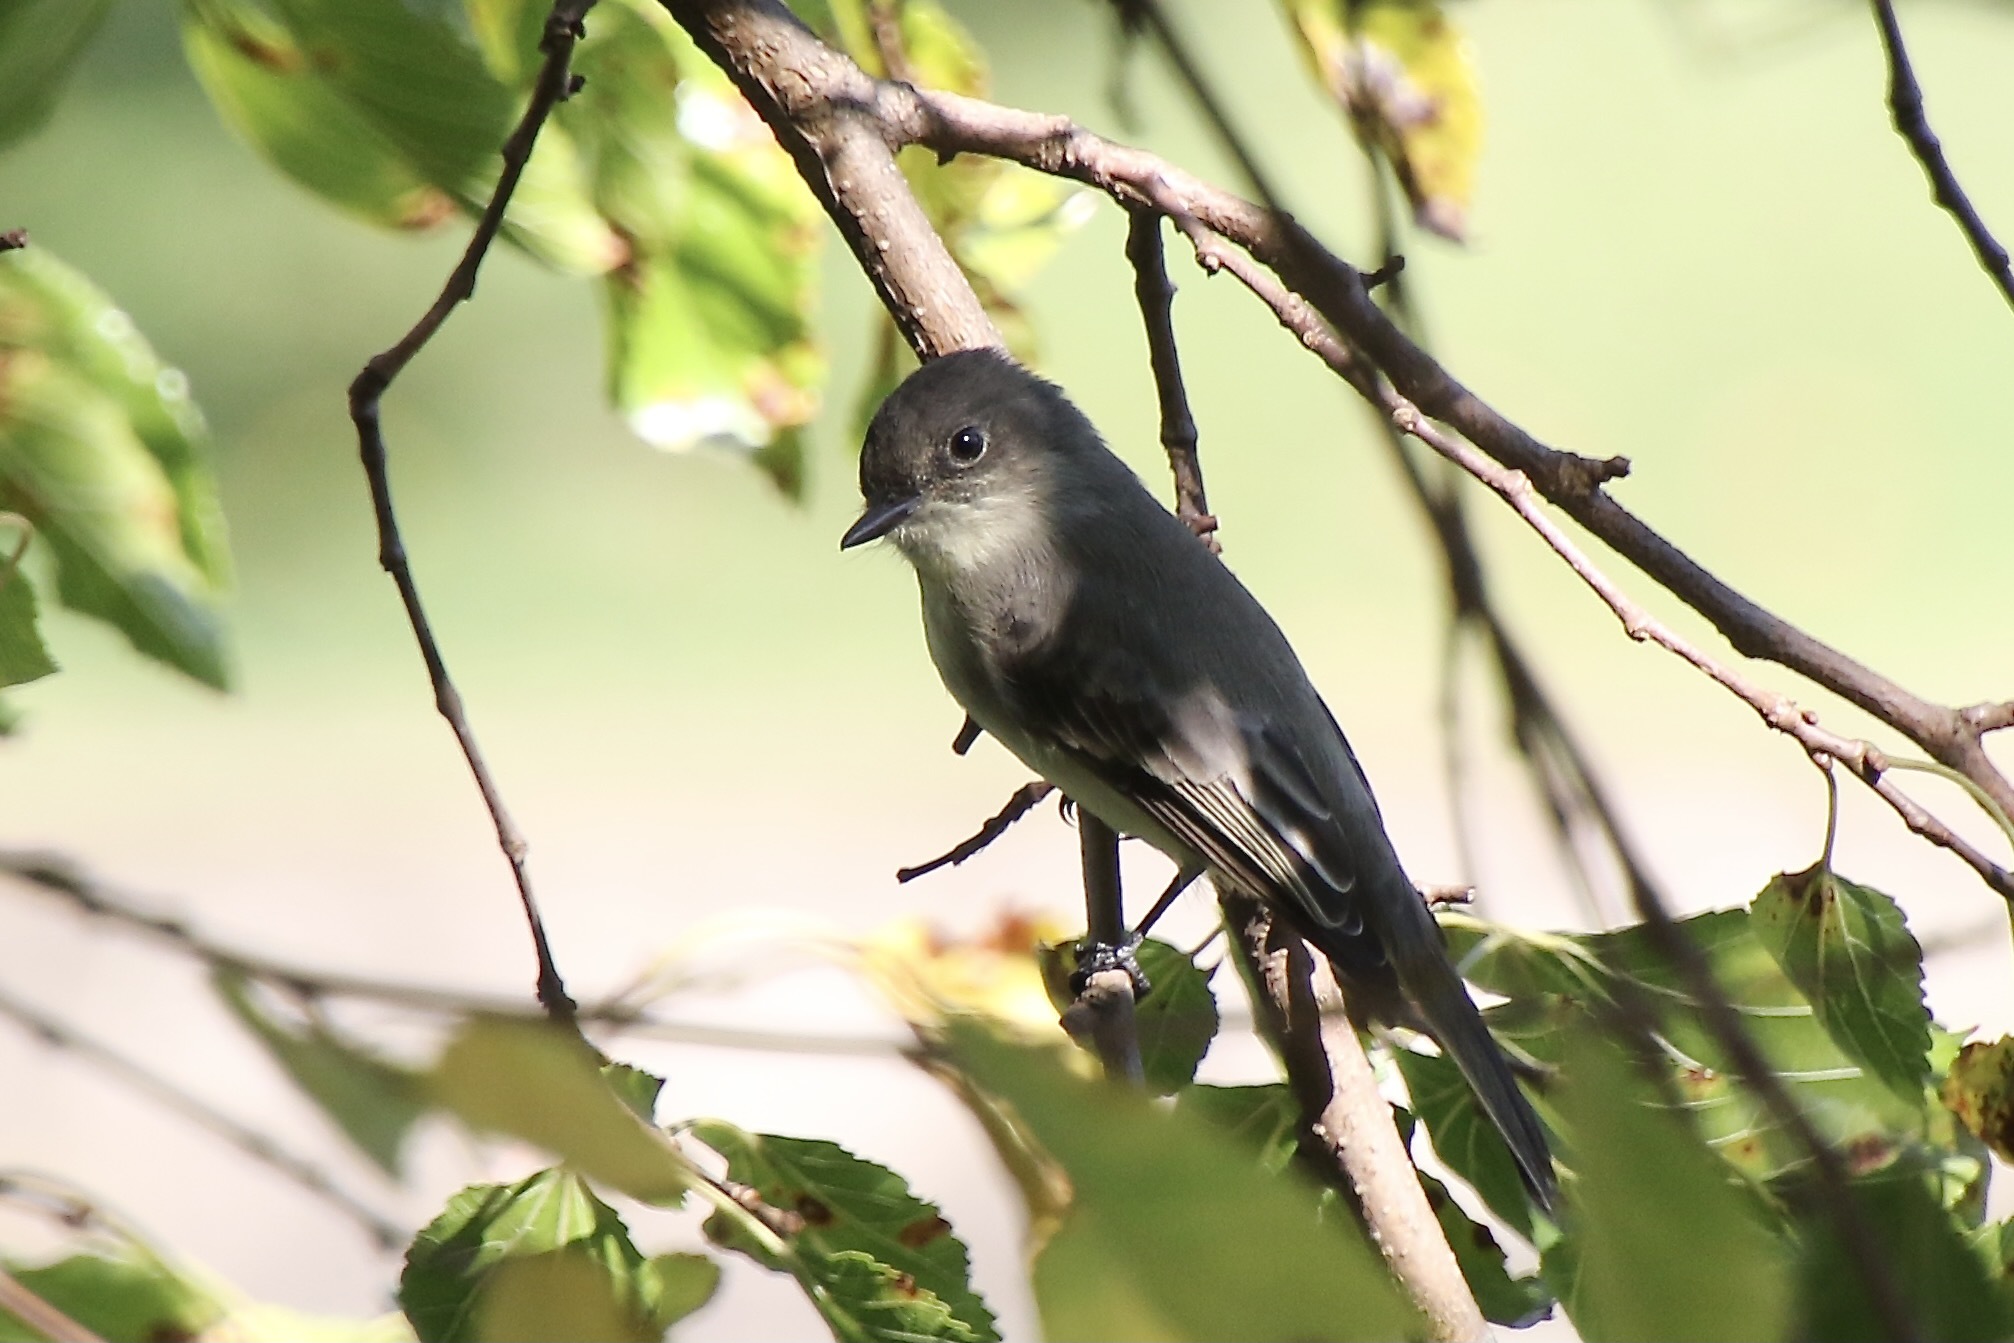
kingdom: Animalia
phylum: Chordata
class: Aves
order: Passeriformes
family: Tyrannidae
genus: Sayornis
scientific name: Sayornis phoebe
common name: Eastern phoebe
